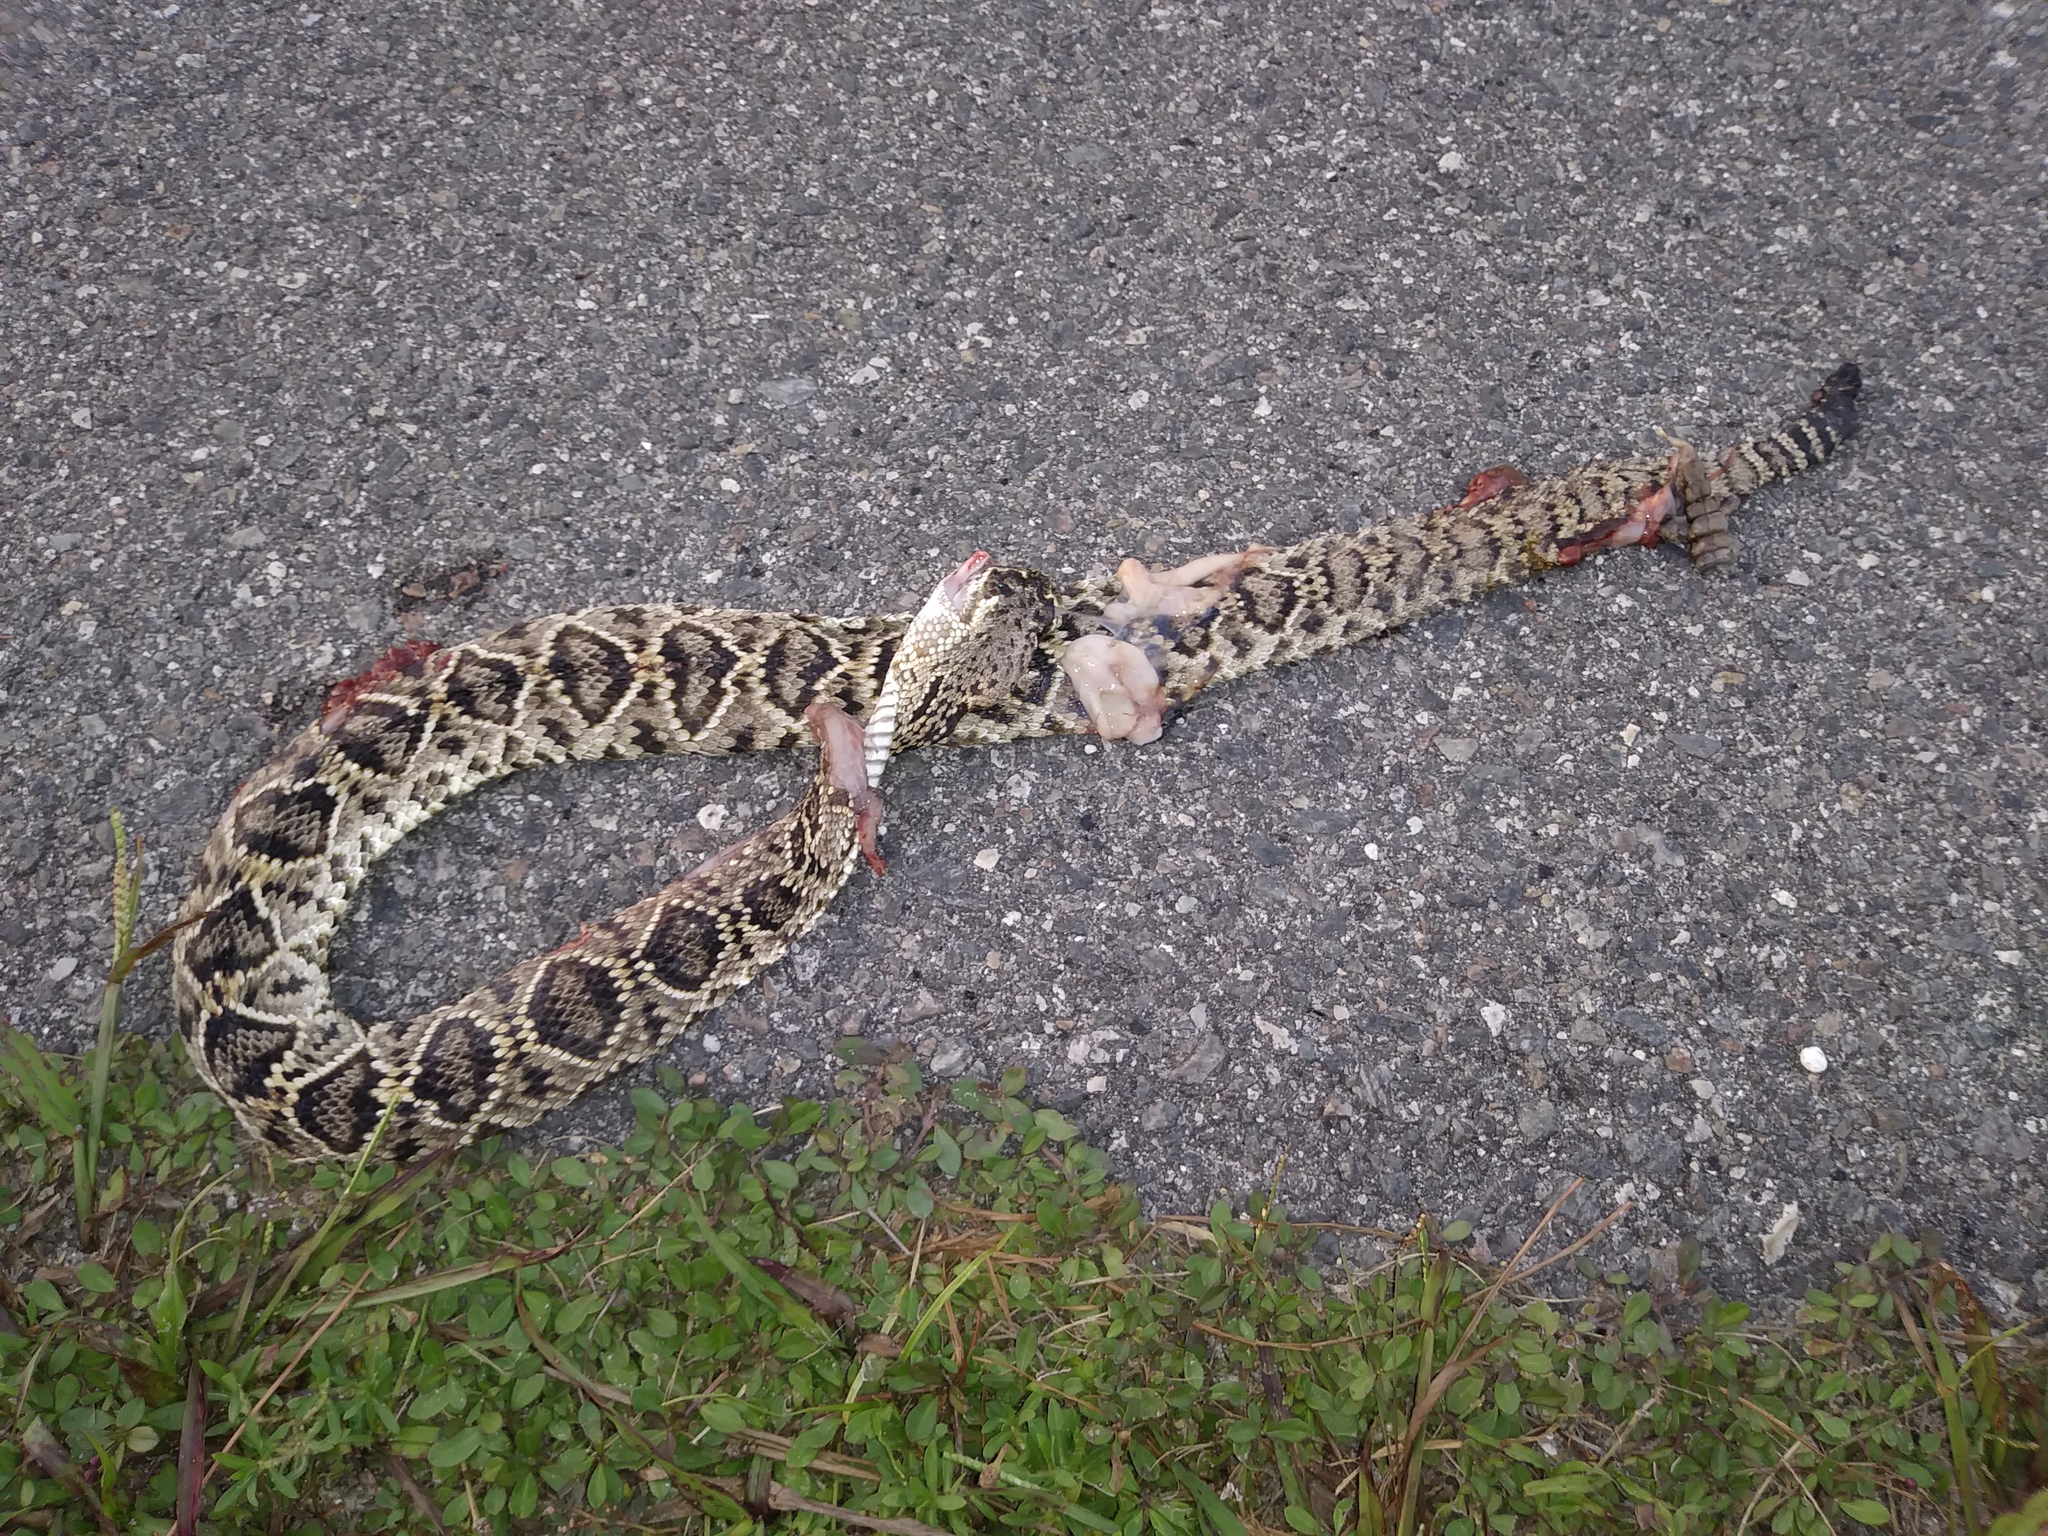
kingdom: Animalia
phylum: Chordata
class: Squamata
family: Viperidae
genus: Crotalus
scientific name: Crotalus adamanteus
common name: Eastern diamondback rattlesnake
